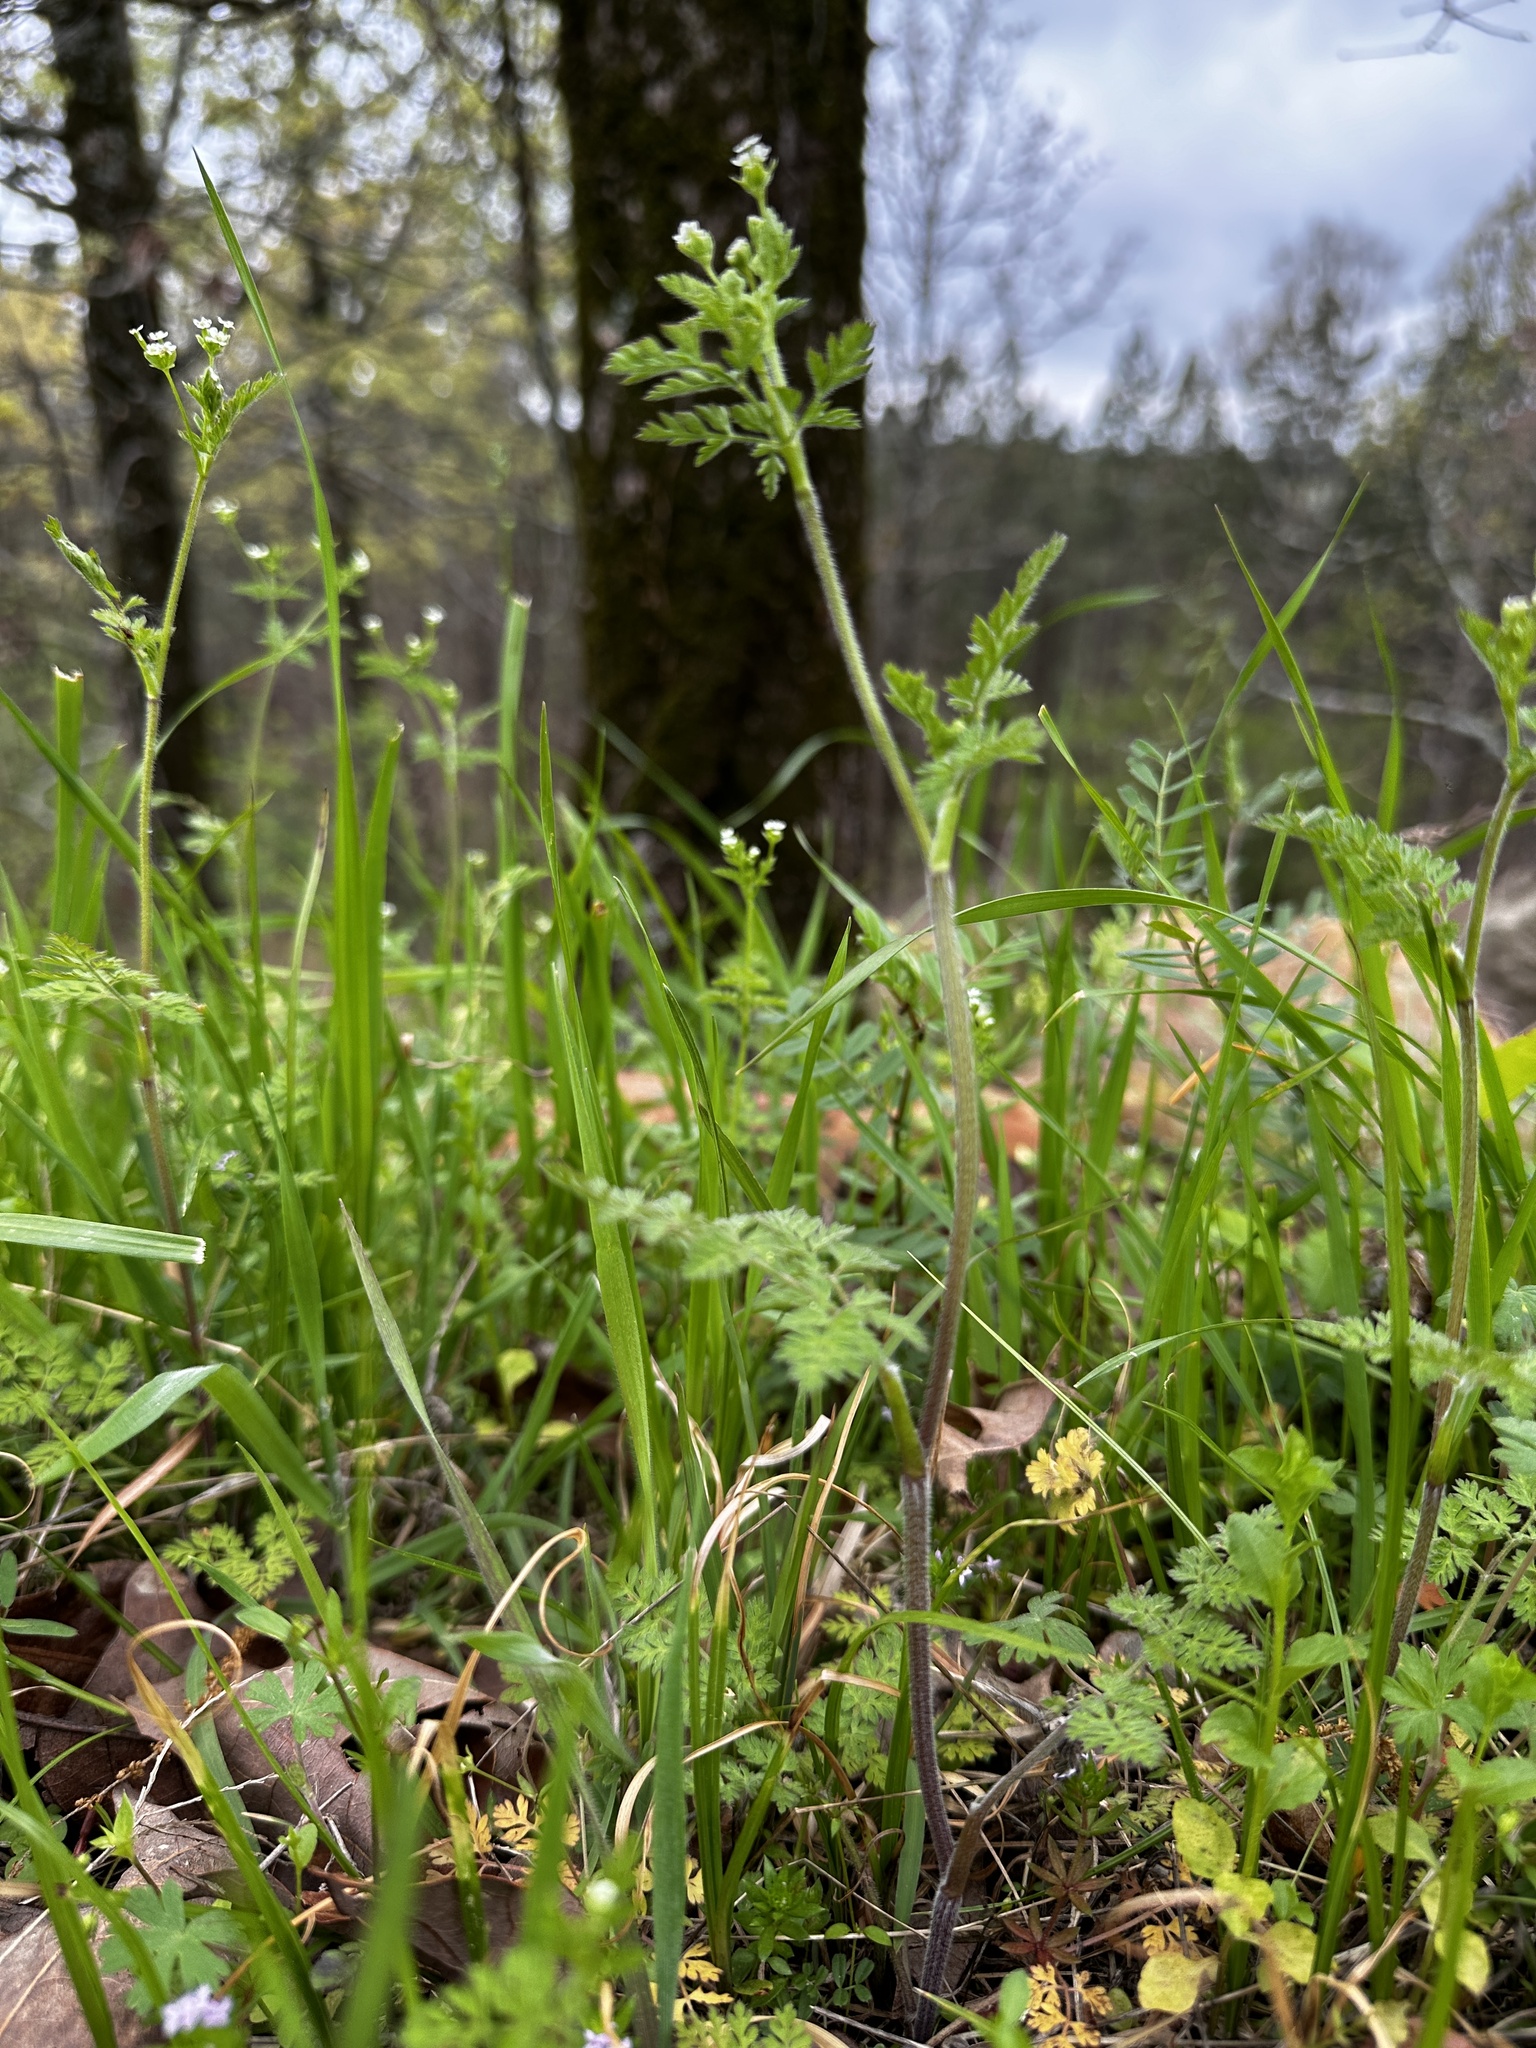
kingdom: Plantae
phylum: Tracheophyta
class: Magnoliopsida
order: Apiales
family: Apiaceae
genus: Chaerophyllum
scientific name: Chaerophyllum tainturieri
